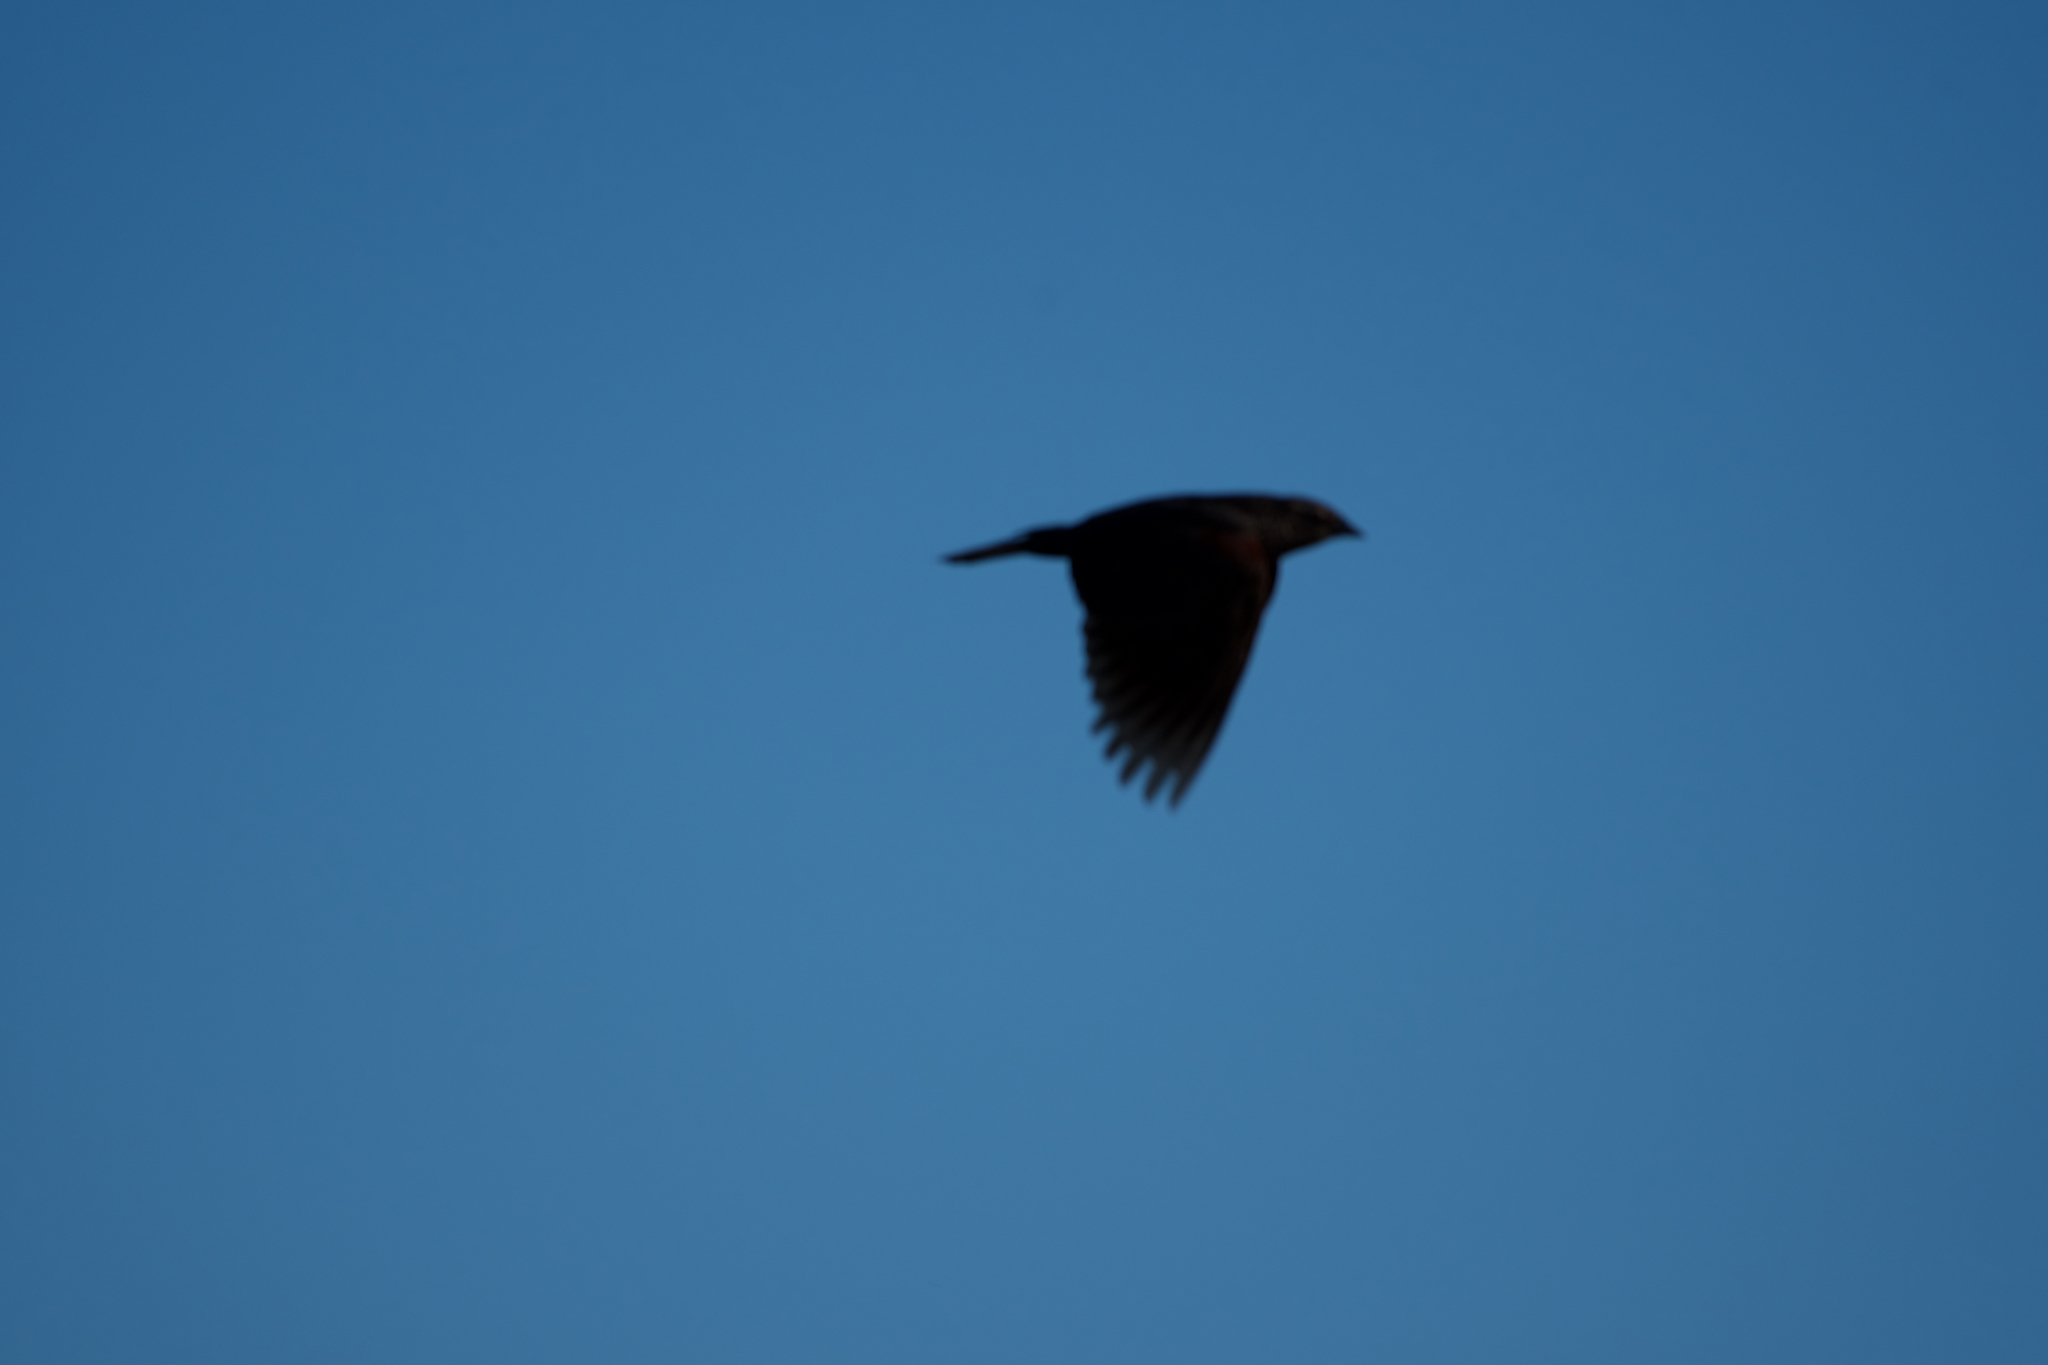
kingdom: Animalia
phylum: Chordata
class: Aves
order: Passeriformes
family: Icteridae
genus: Molothrus
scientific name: Molothrus ater
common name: Brown-headed cowbird
